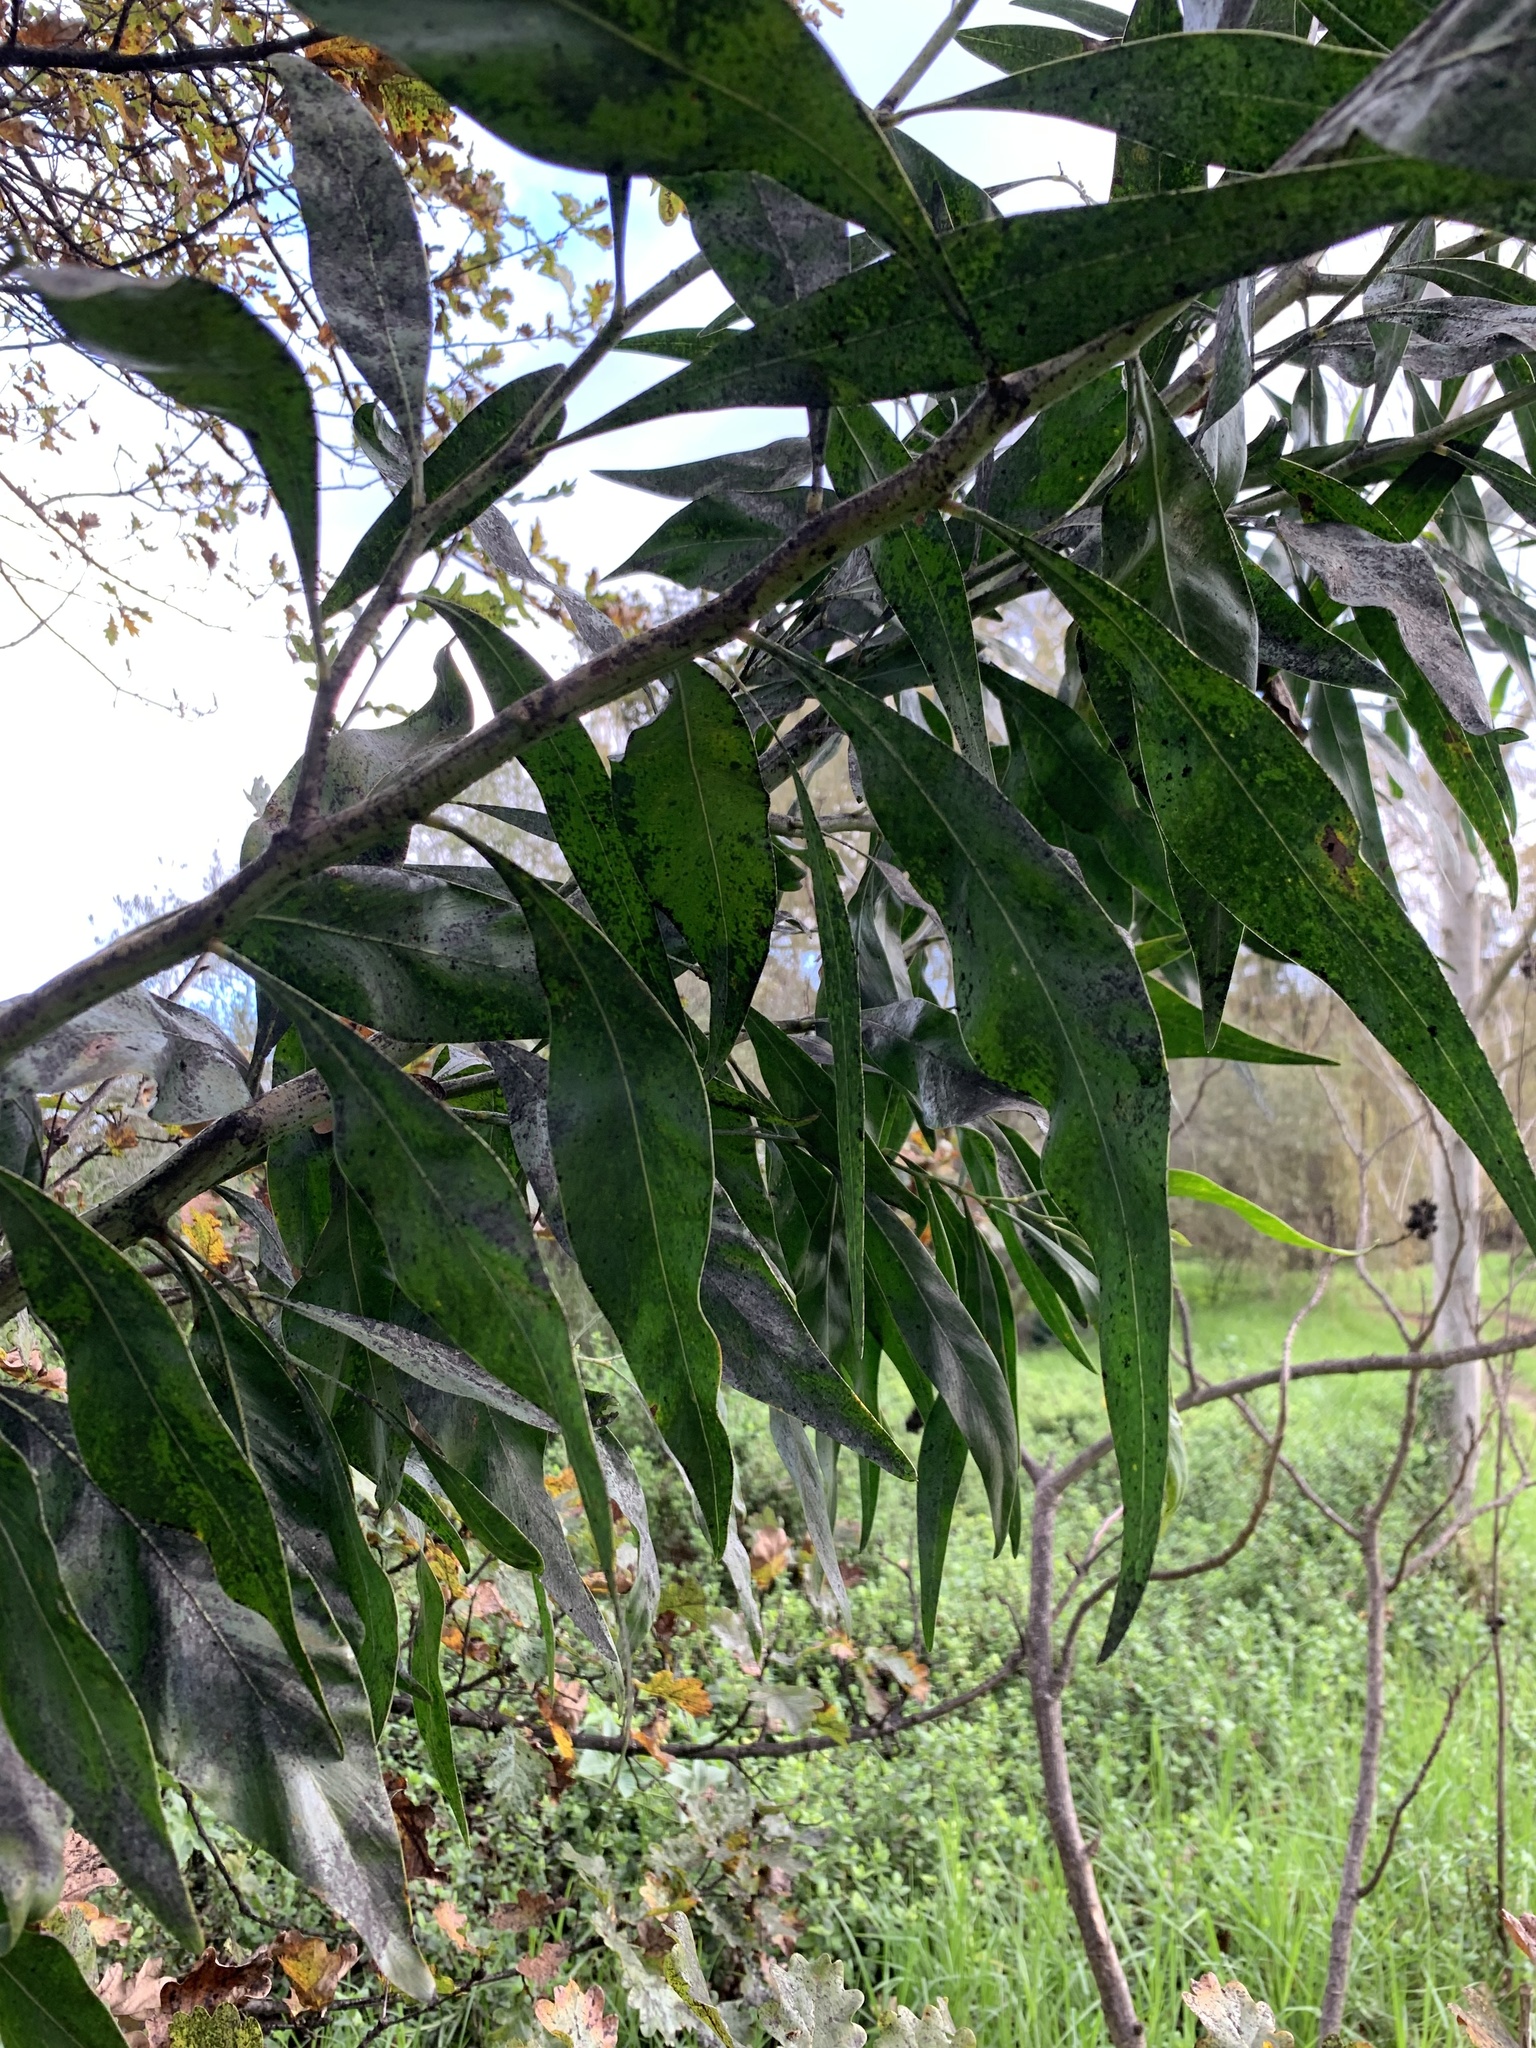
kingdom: Plantae
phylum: Tracheophyta
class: Magnoliopsida
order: Fabales
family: Fabaceae
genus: Acacia
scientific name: Acacia saligna
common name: Orange wattle
